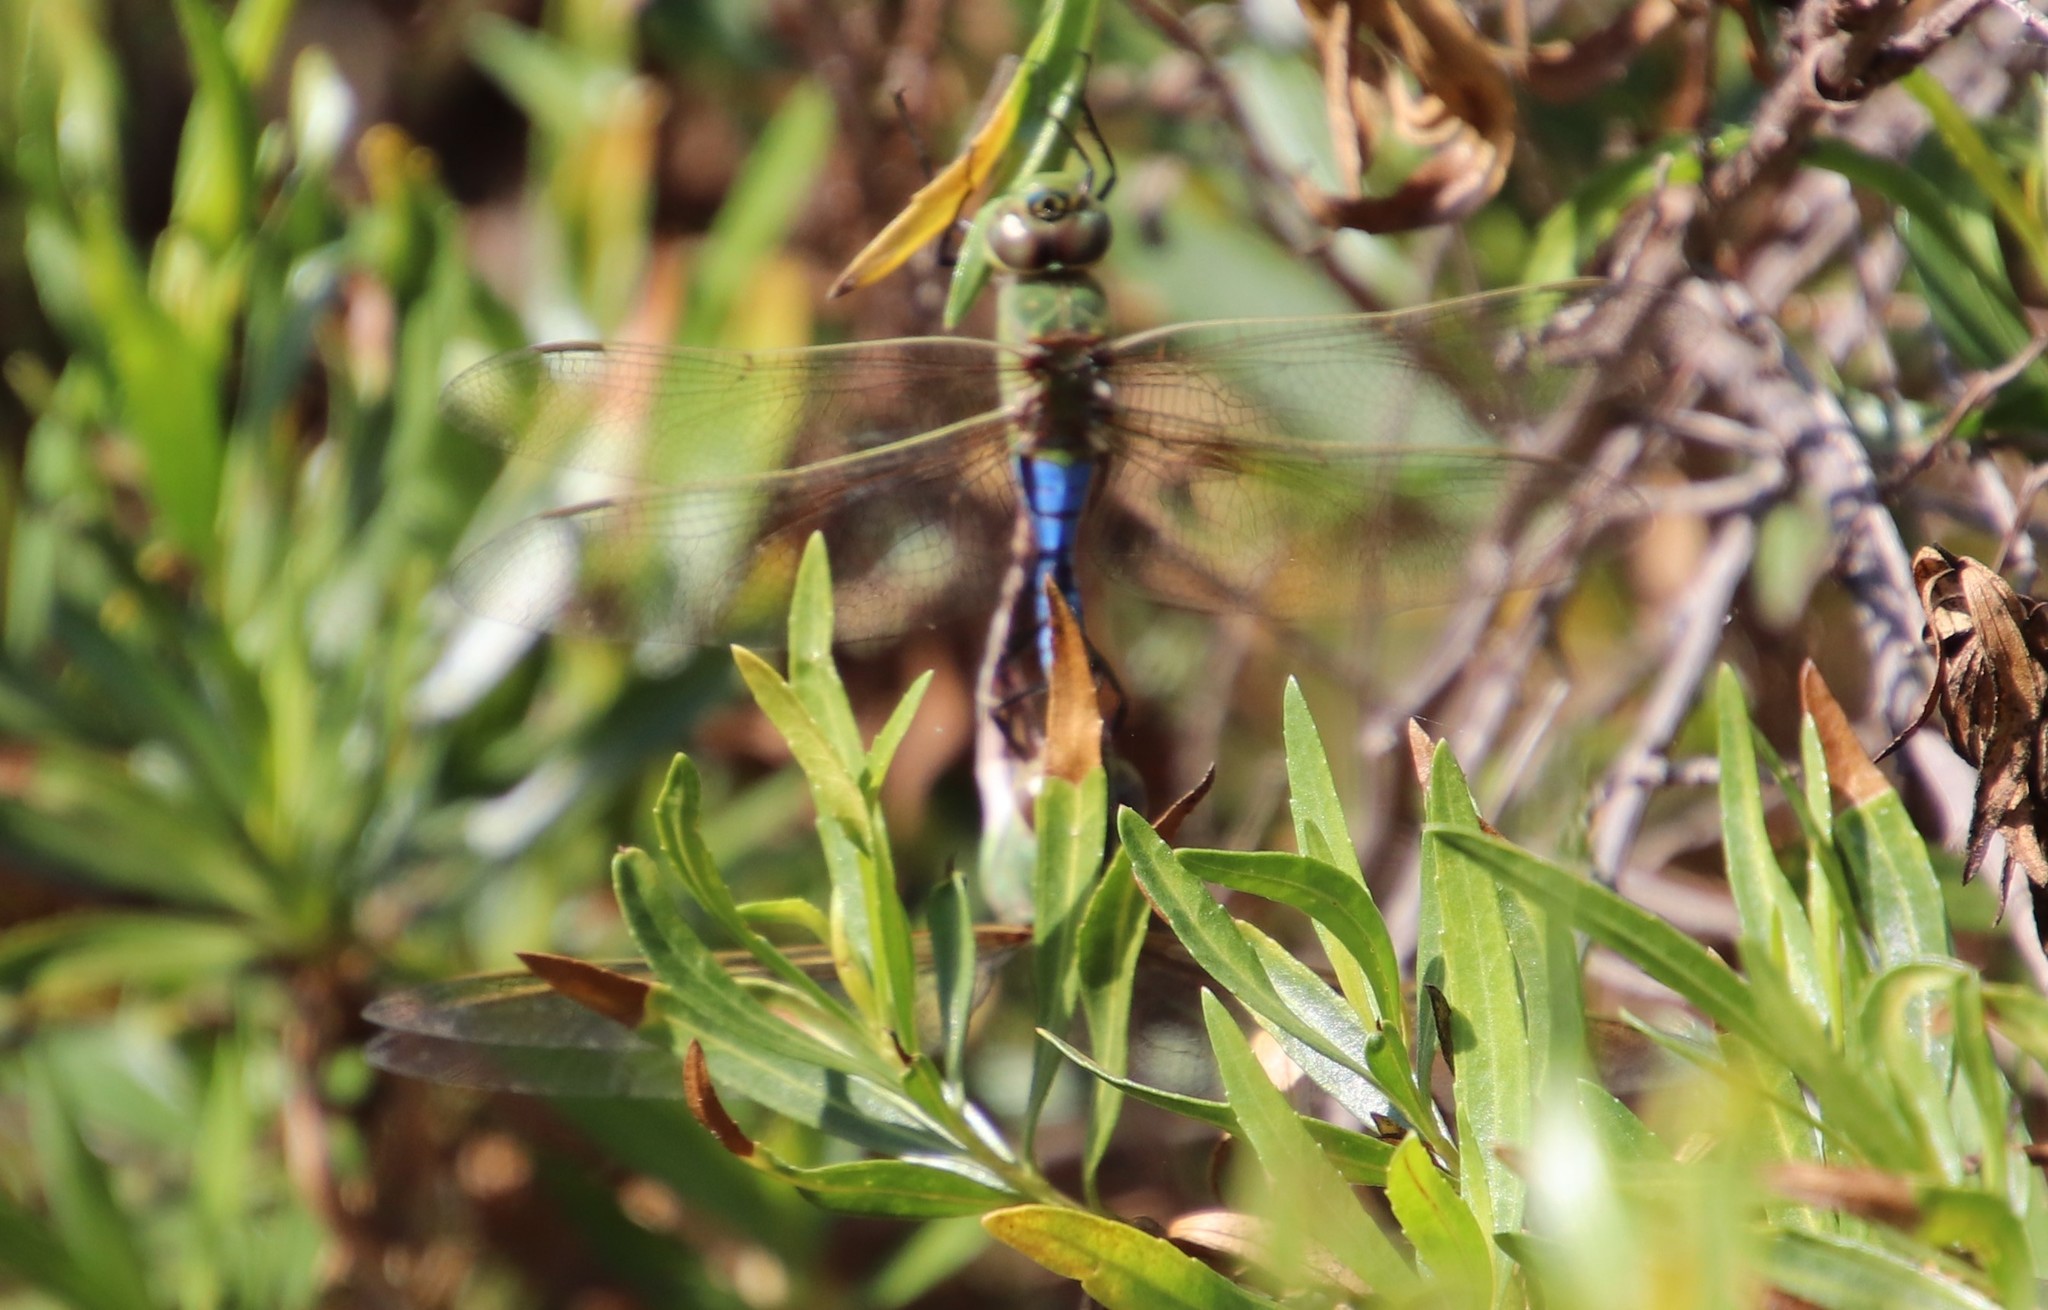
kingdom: Animalia
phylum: Arthropoda
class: Insecta
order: Odonata
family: Aeshnidae
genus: Anax
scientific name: Anax junius
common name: Common green darner
